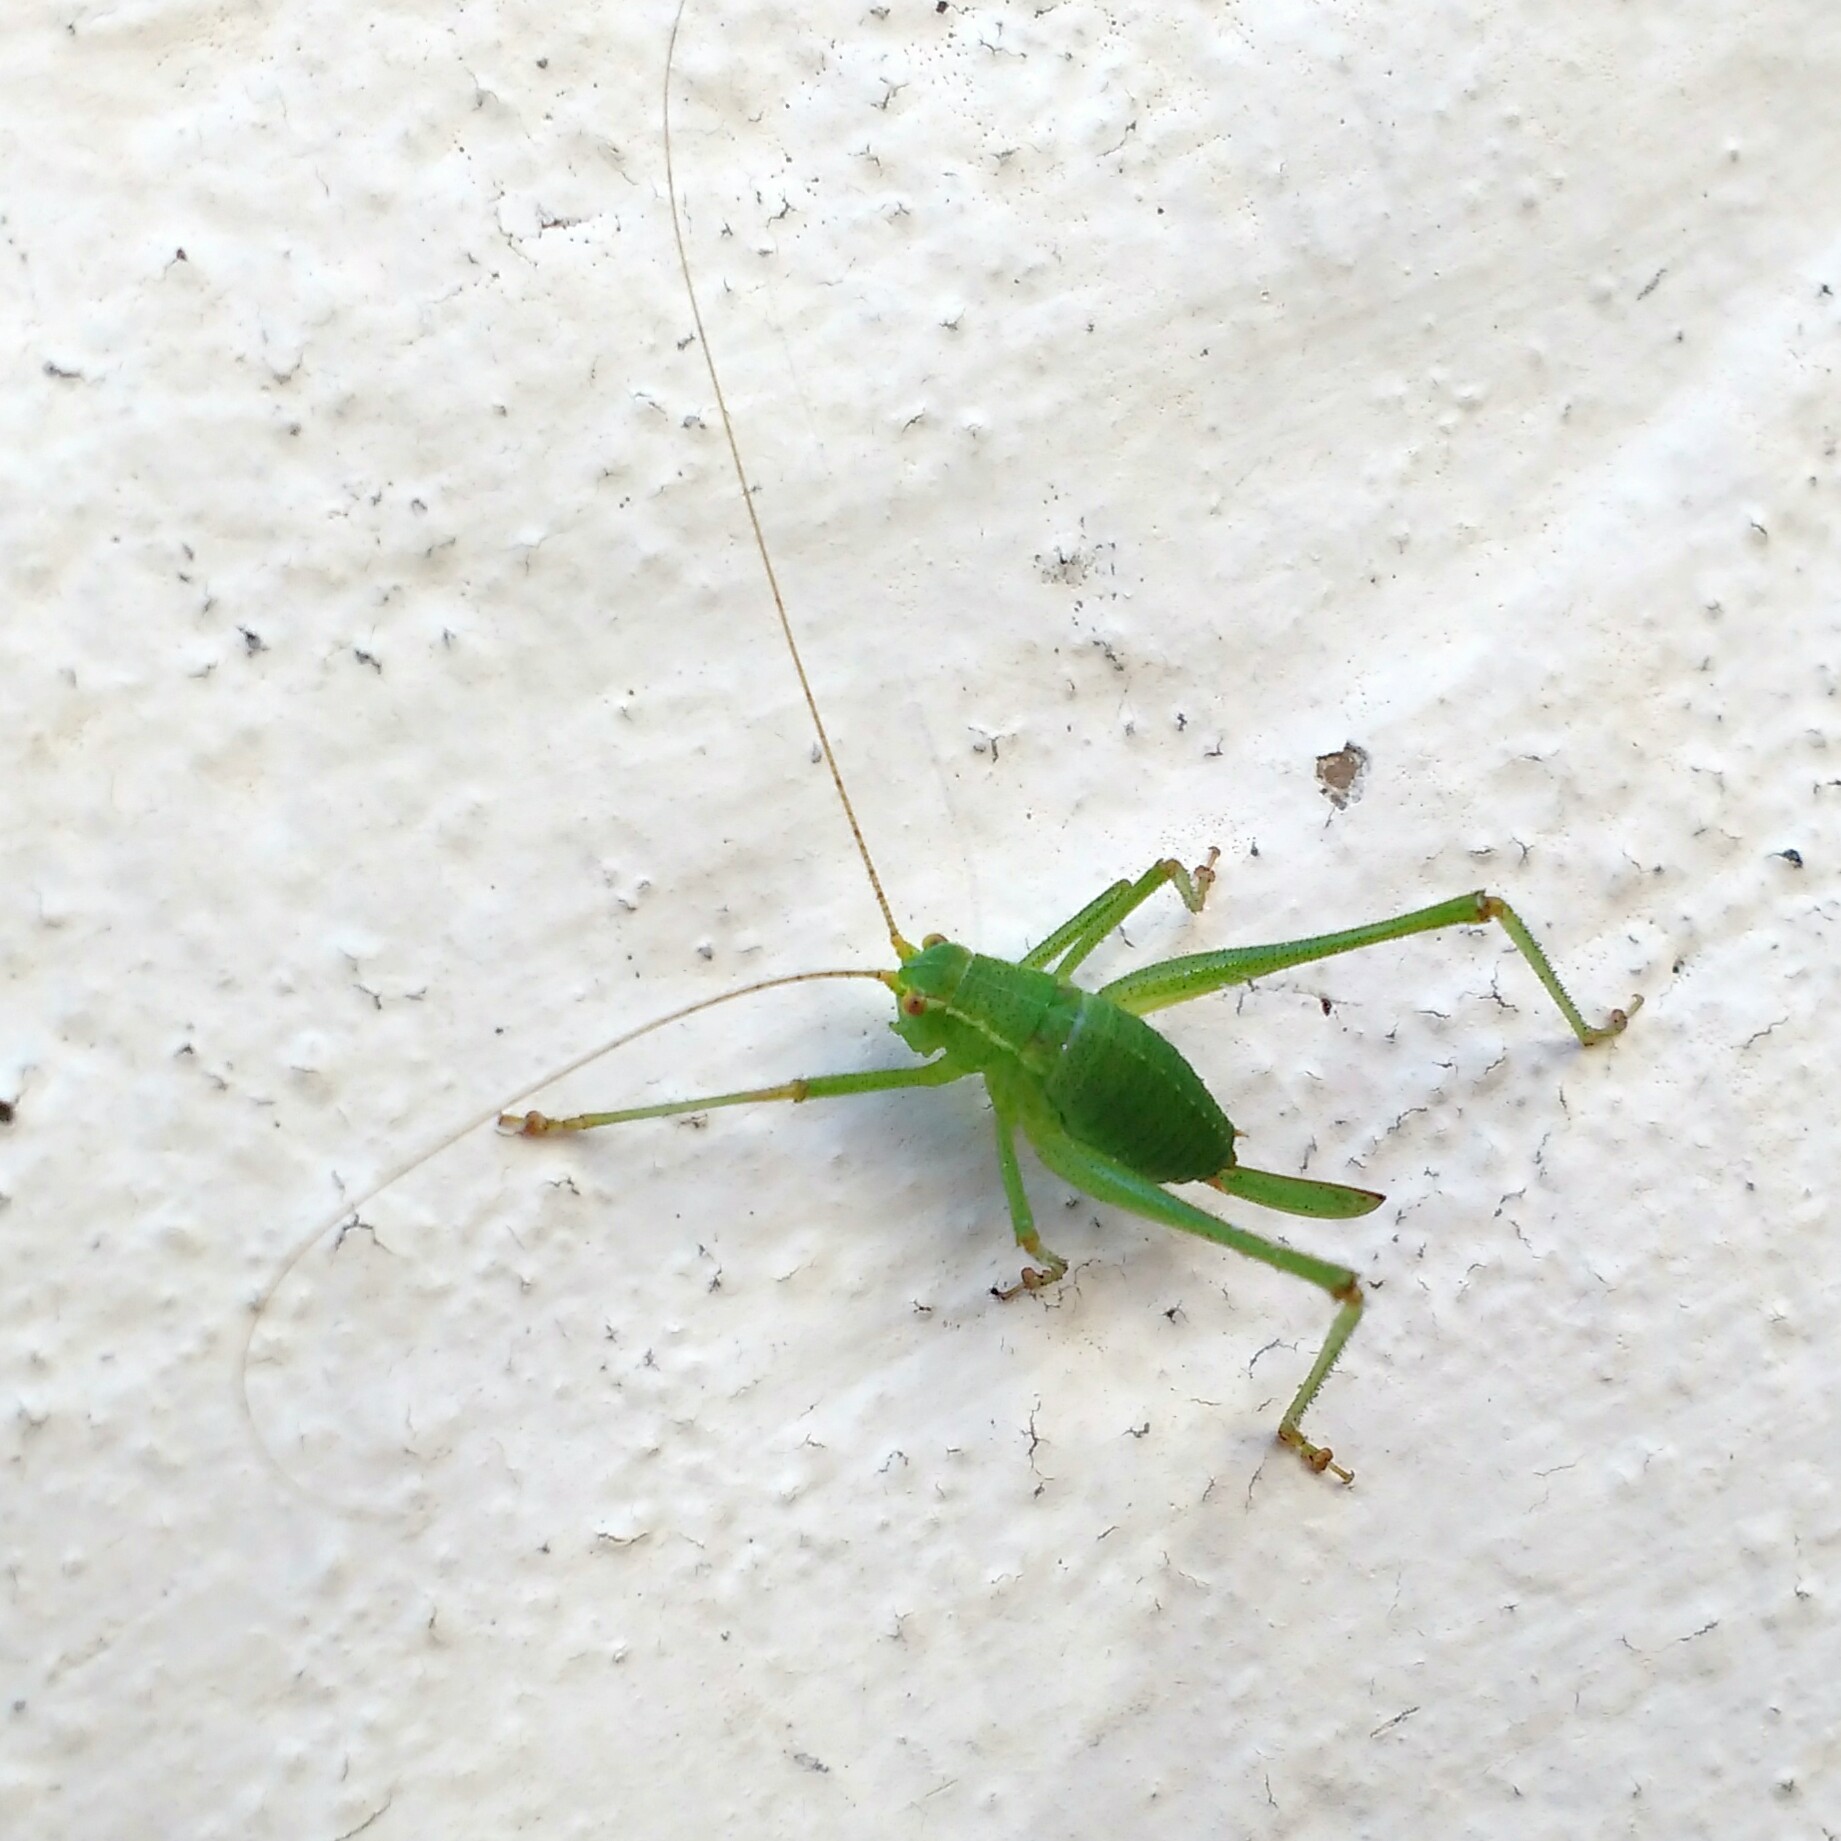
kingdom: Animalia
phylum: Arthropoda
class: Insecta
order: Orthoptera
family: Tettigoniidae
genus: Leptophyes
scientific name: Leptophyes punctatissima
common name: Speckled bush-cricket
